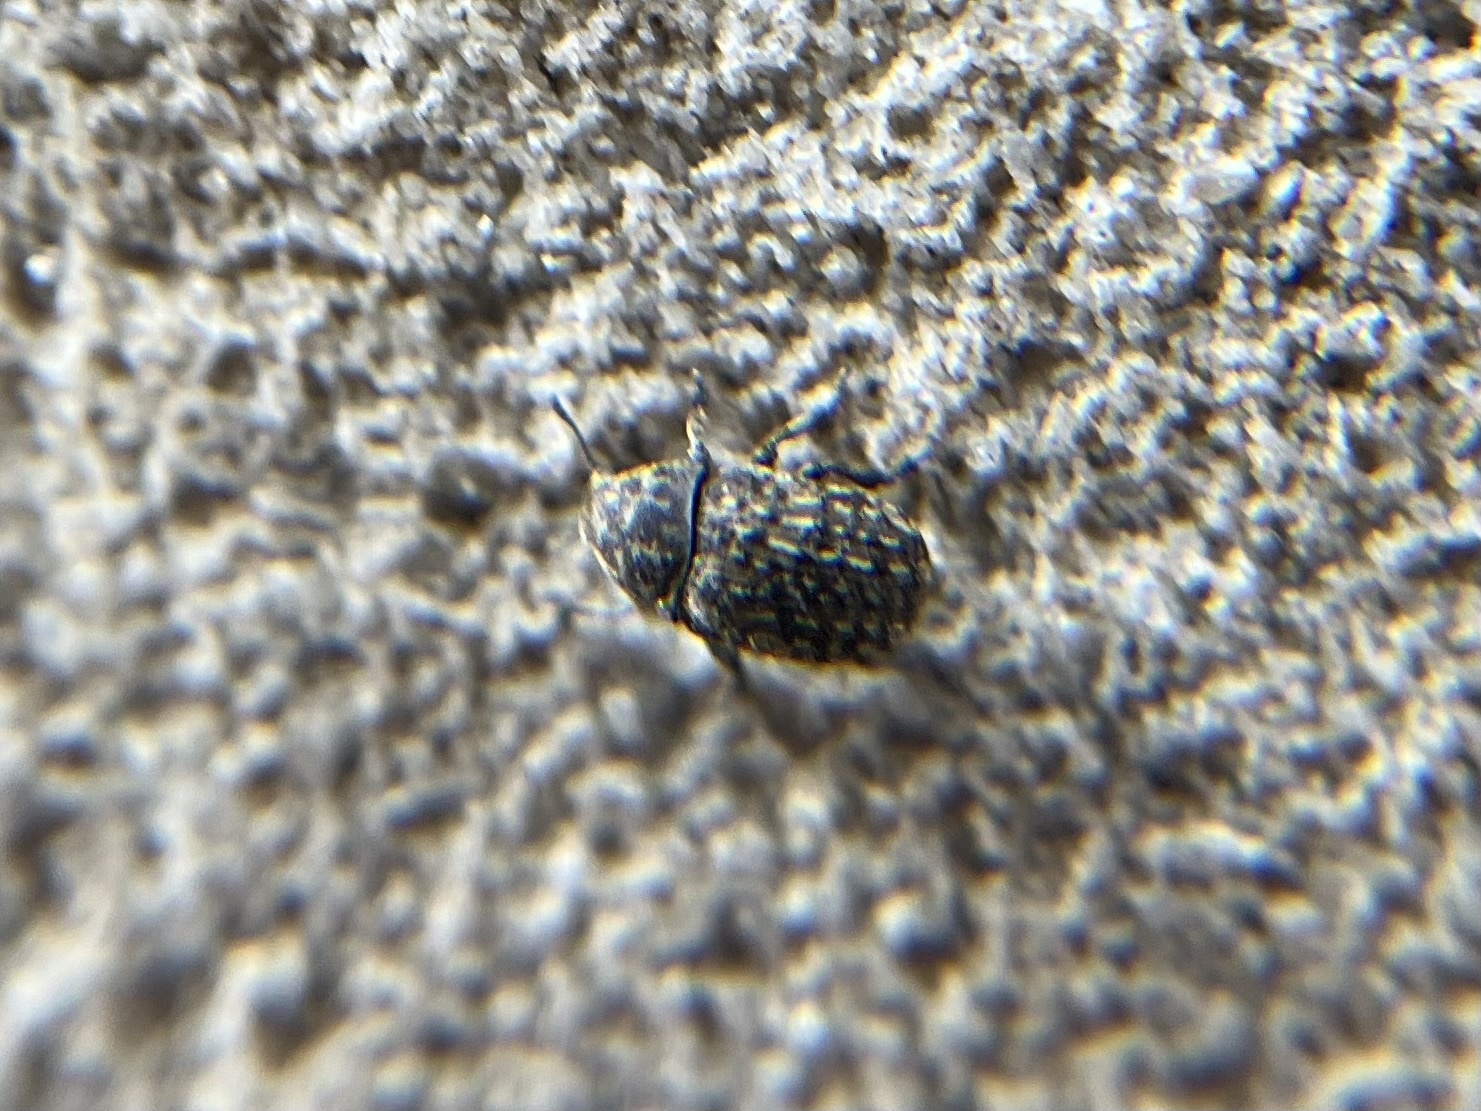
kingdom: Animalia
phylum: Arthropoda
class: Insecta
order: Coleoptera
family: Anthribidae
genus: Anthribus
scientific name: Anthribus nebulosus
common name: Fungus weevil
